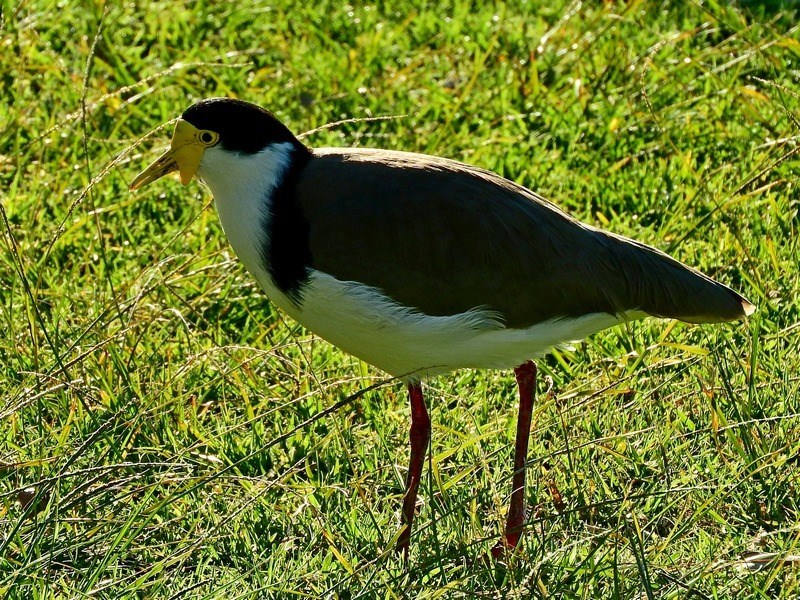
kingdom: Animalia
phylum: Chordata
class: Aves
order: Charadriiformes
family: Charadriidae
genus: Vanellus
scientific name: Vanellus miles
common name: Masked lapwing
